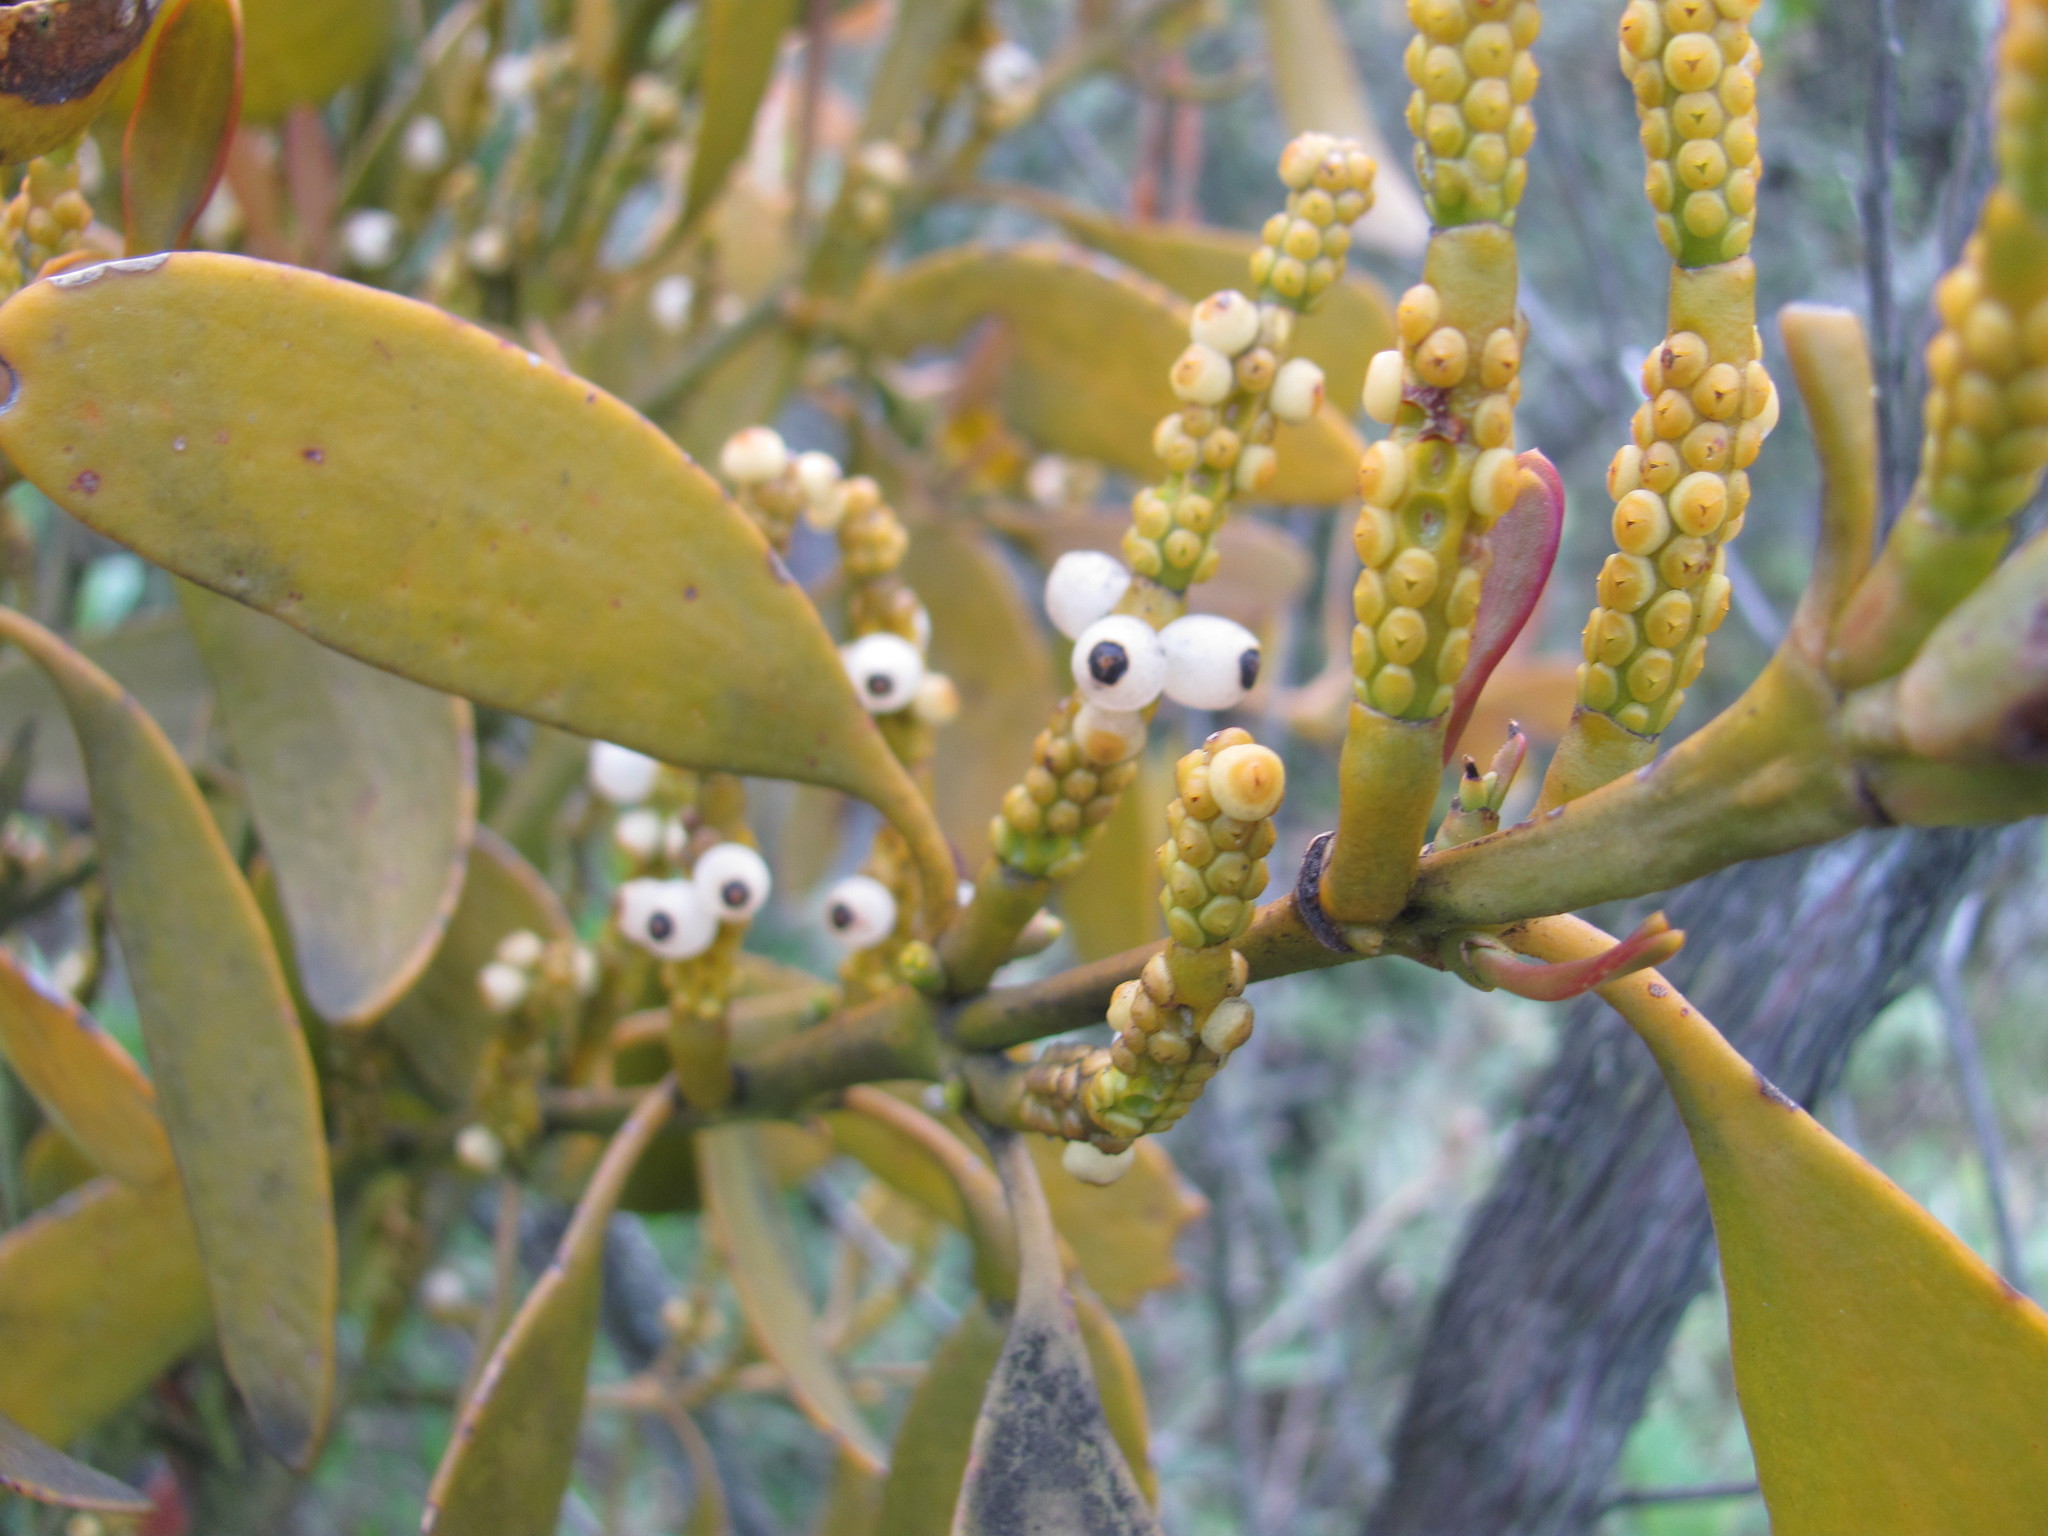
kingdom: Plantae
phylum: Tracheophyta
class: Magnoliopsida
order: Santalales
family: Viscaceae
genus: Dendrophthora
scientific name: Dendrophthora clavata
